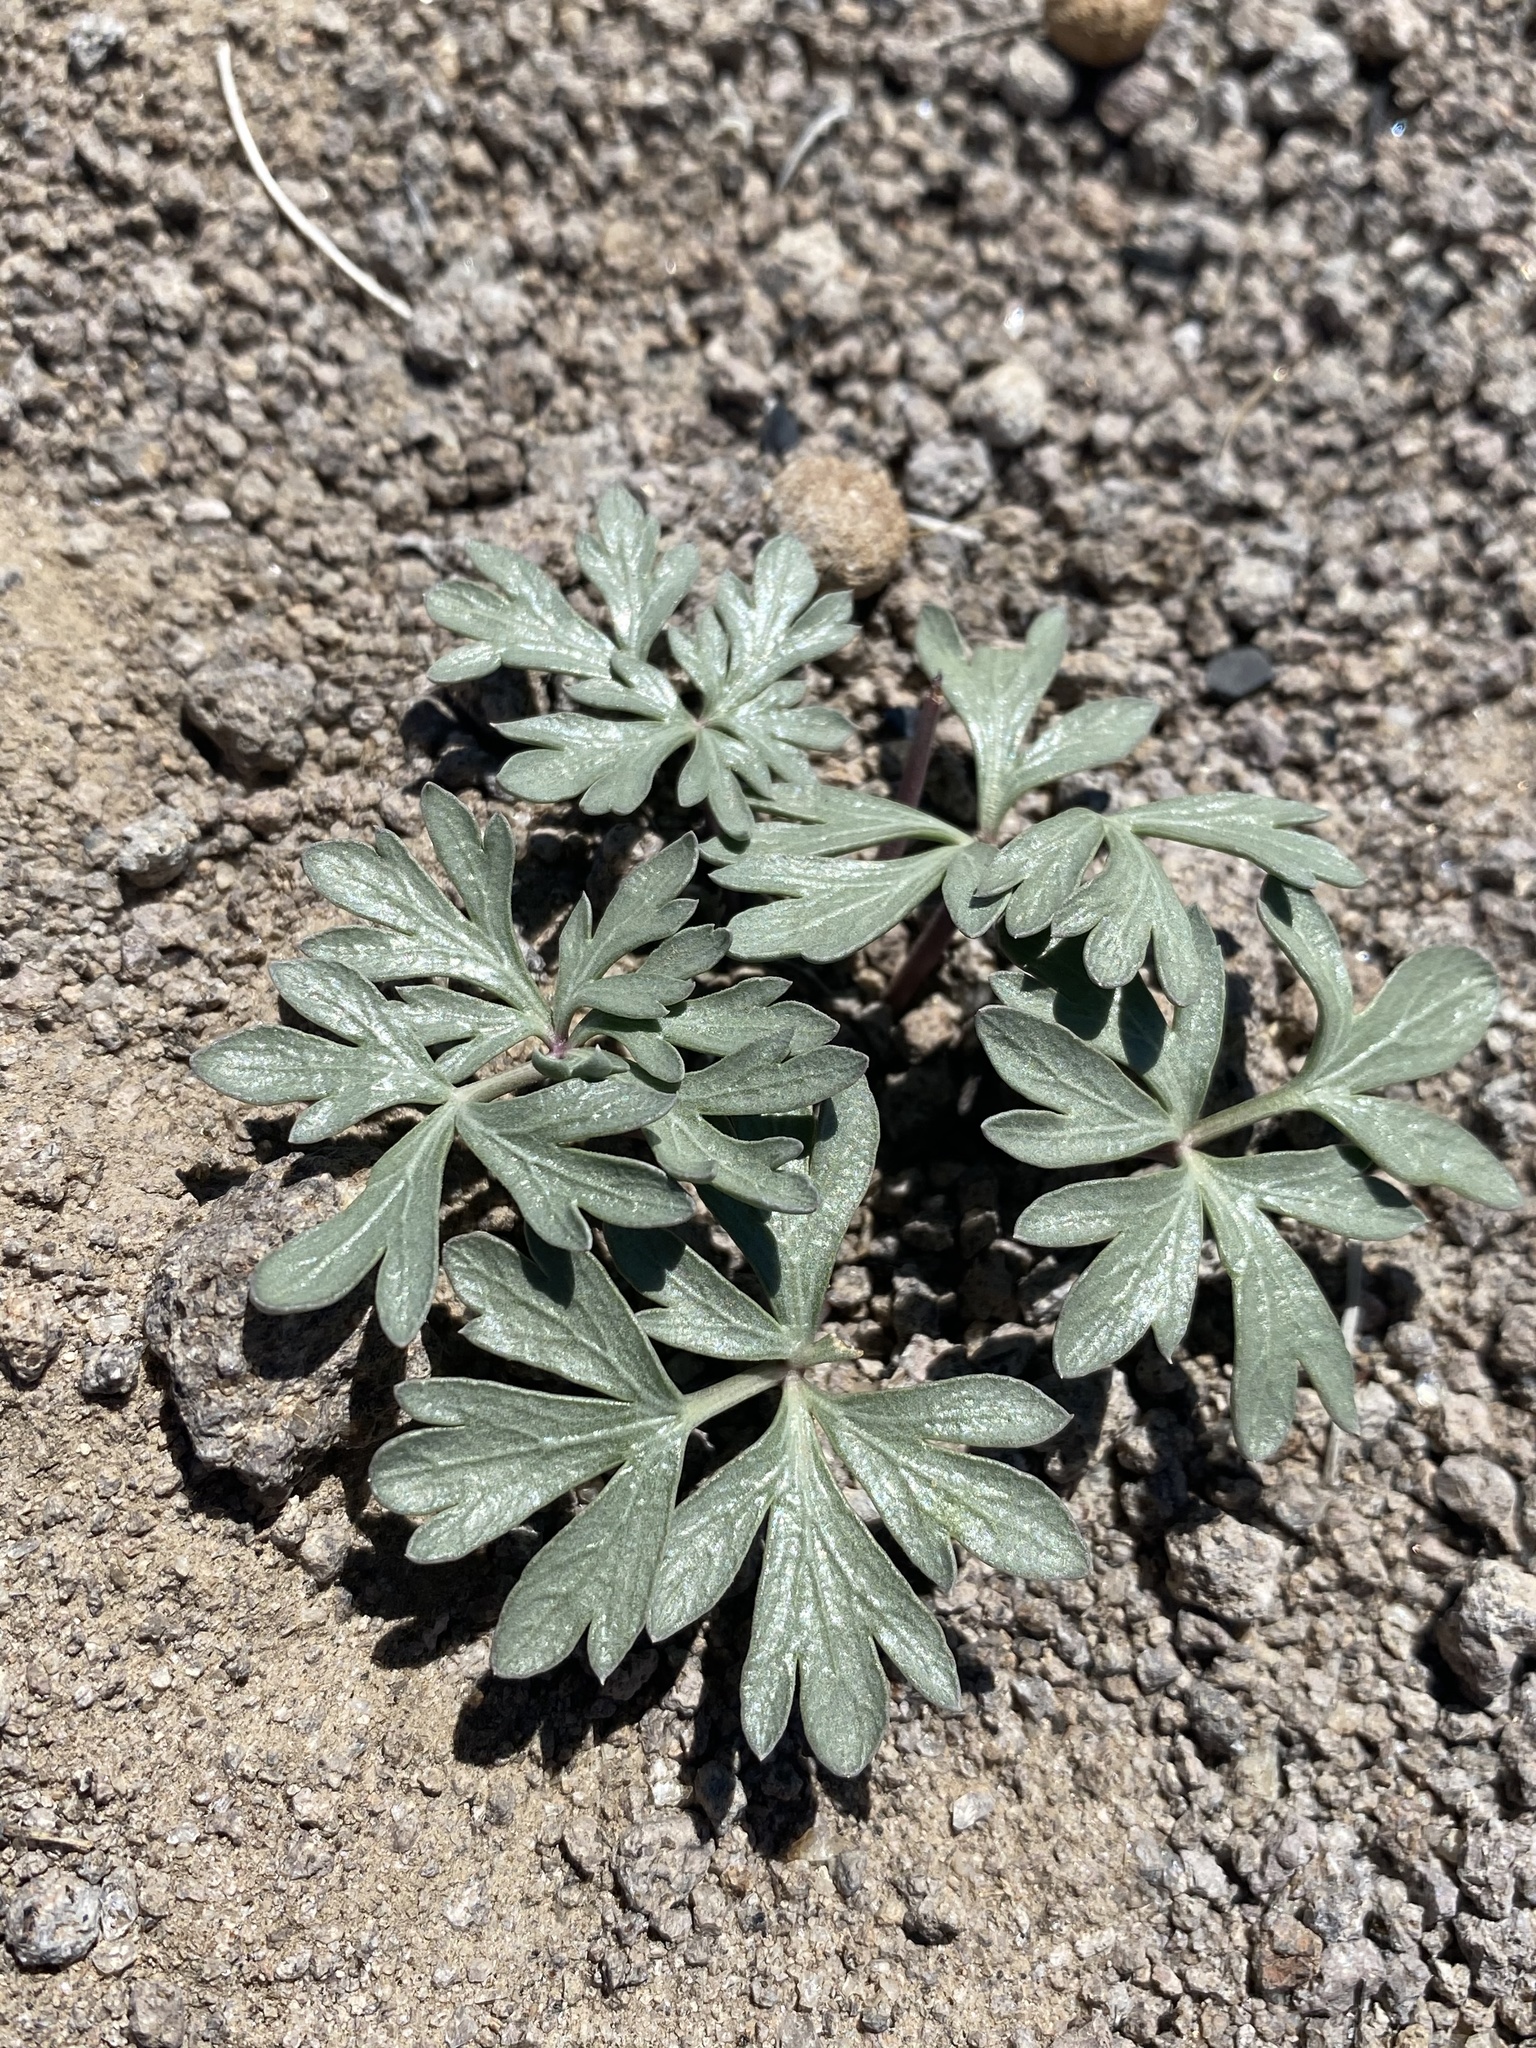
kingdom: Plantae
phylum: Tracheophyta
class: Magnoliopsida
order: Apiales
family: Apiaceae
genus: Cymopterus
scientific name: Cymopterus ripleyi
